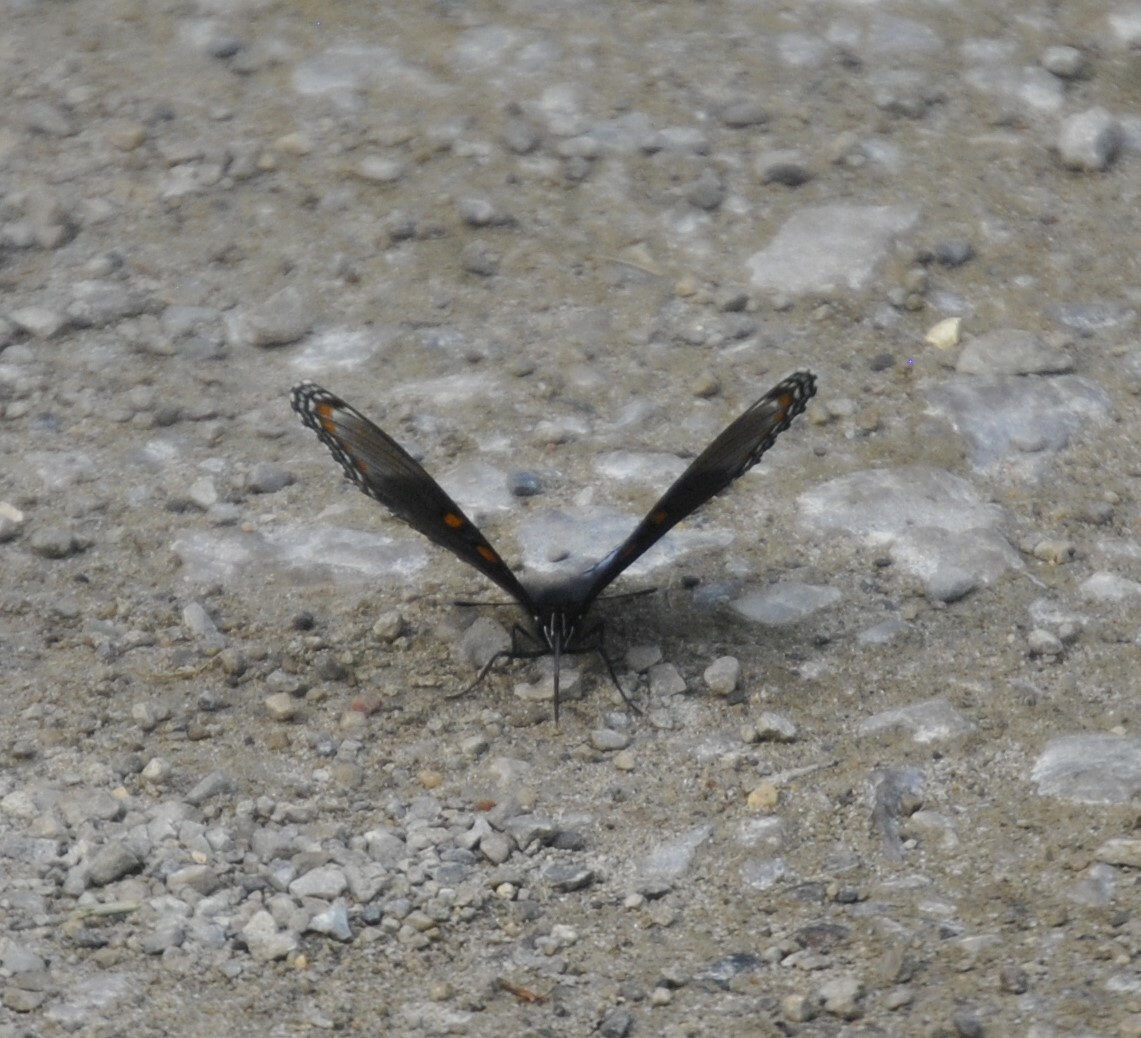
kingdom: Animalia
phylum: Arthropoda
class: Insecta
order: Lepidoptera
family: Nymphalidae
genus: Limenitis
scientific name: Limenitis astyanax
